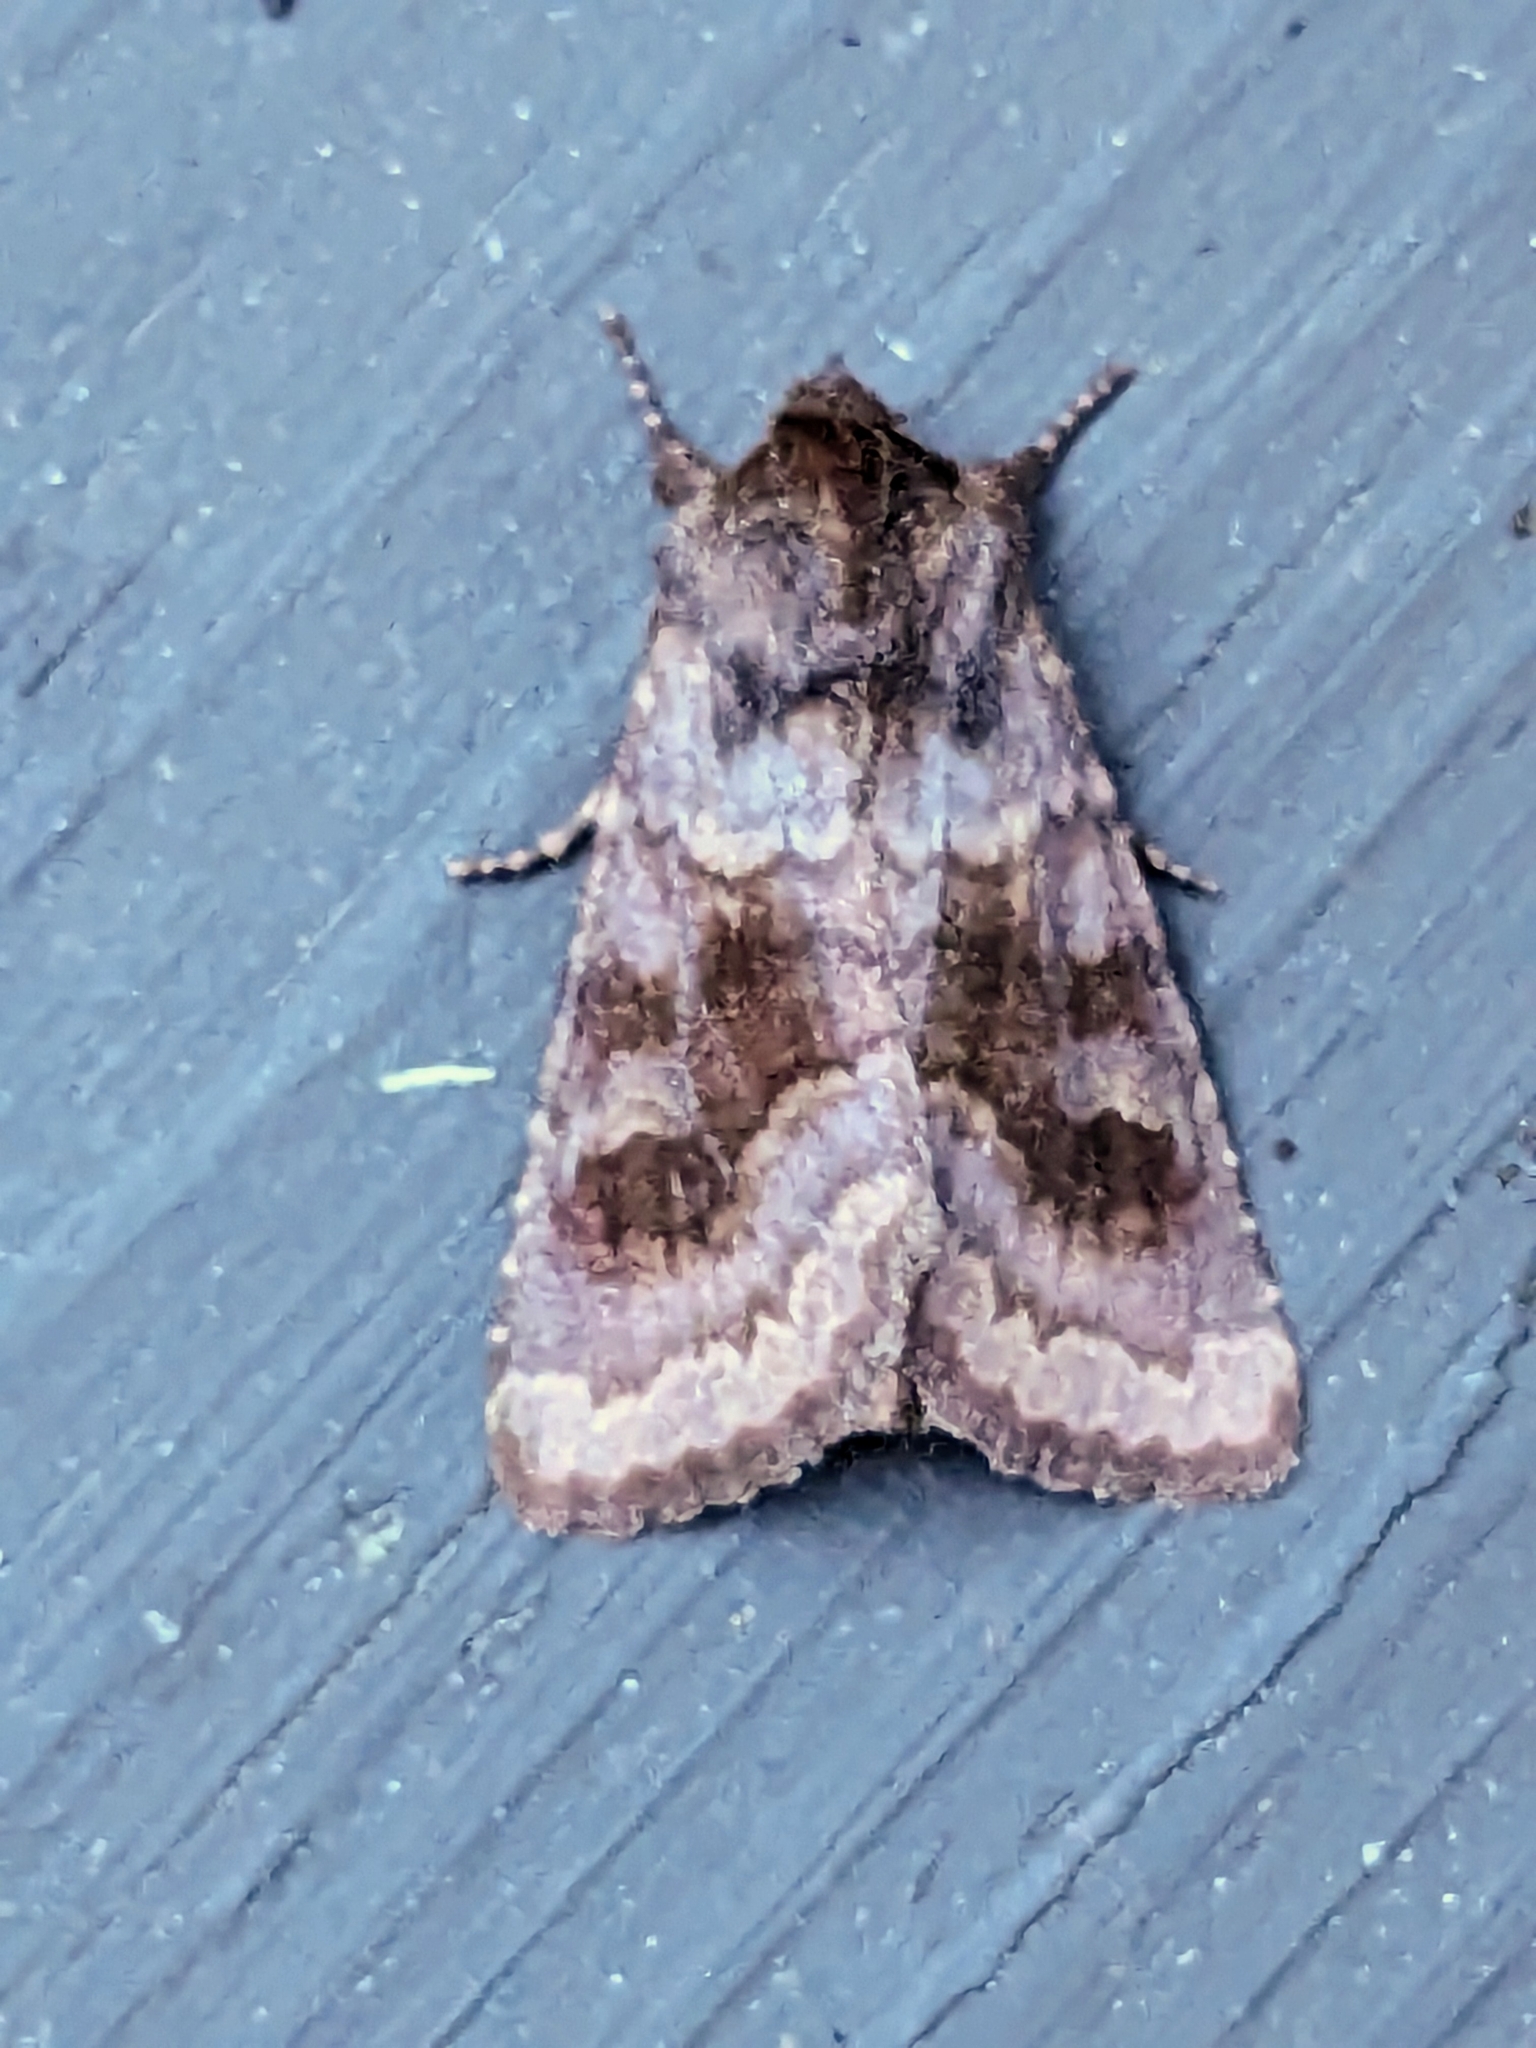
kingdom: Animalia
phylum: Arthropoda
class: Insecta
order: Lepidoptera
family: Noctuidae
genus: Nephelodes
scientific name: Nephelodes minians
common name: Bronzed cutworm
